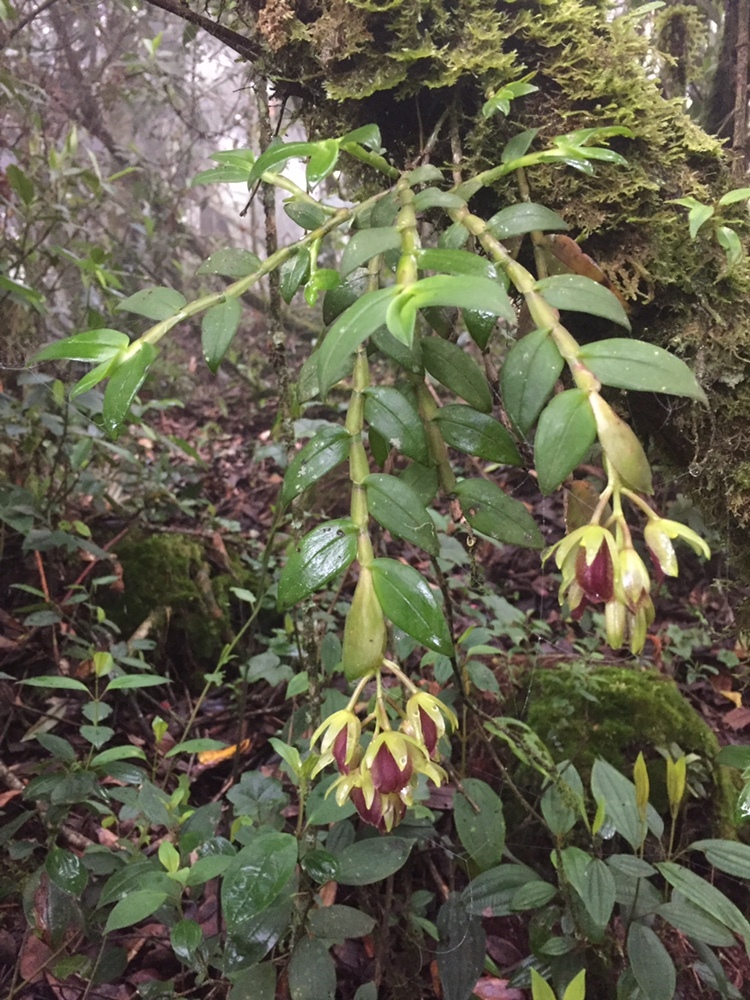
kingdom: Plantae
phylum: Tracheophyta
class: Liliopsida
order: Asparagales
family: Orchidaceae
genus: Epidendrum
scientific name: Epidendrum megalospathum
